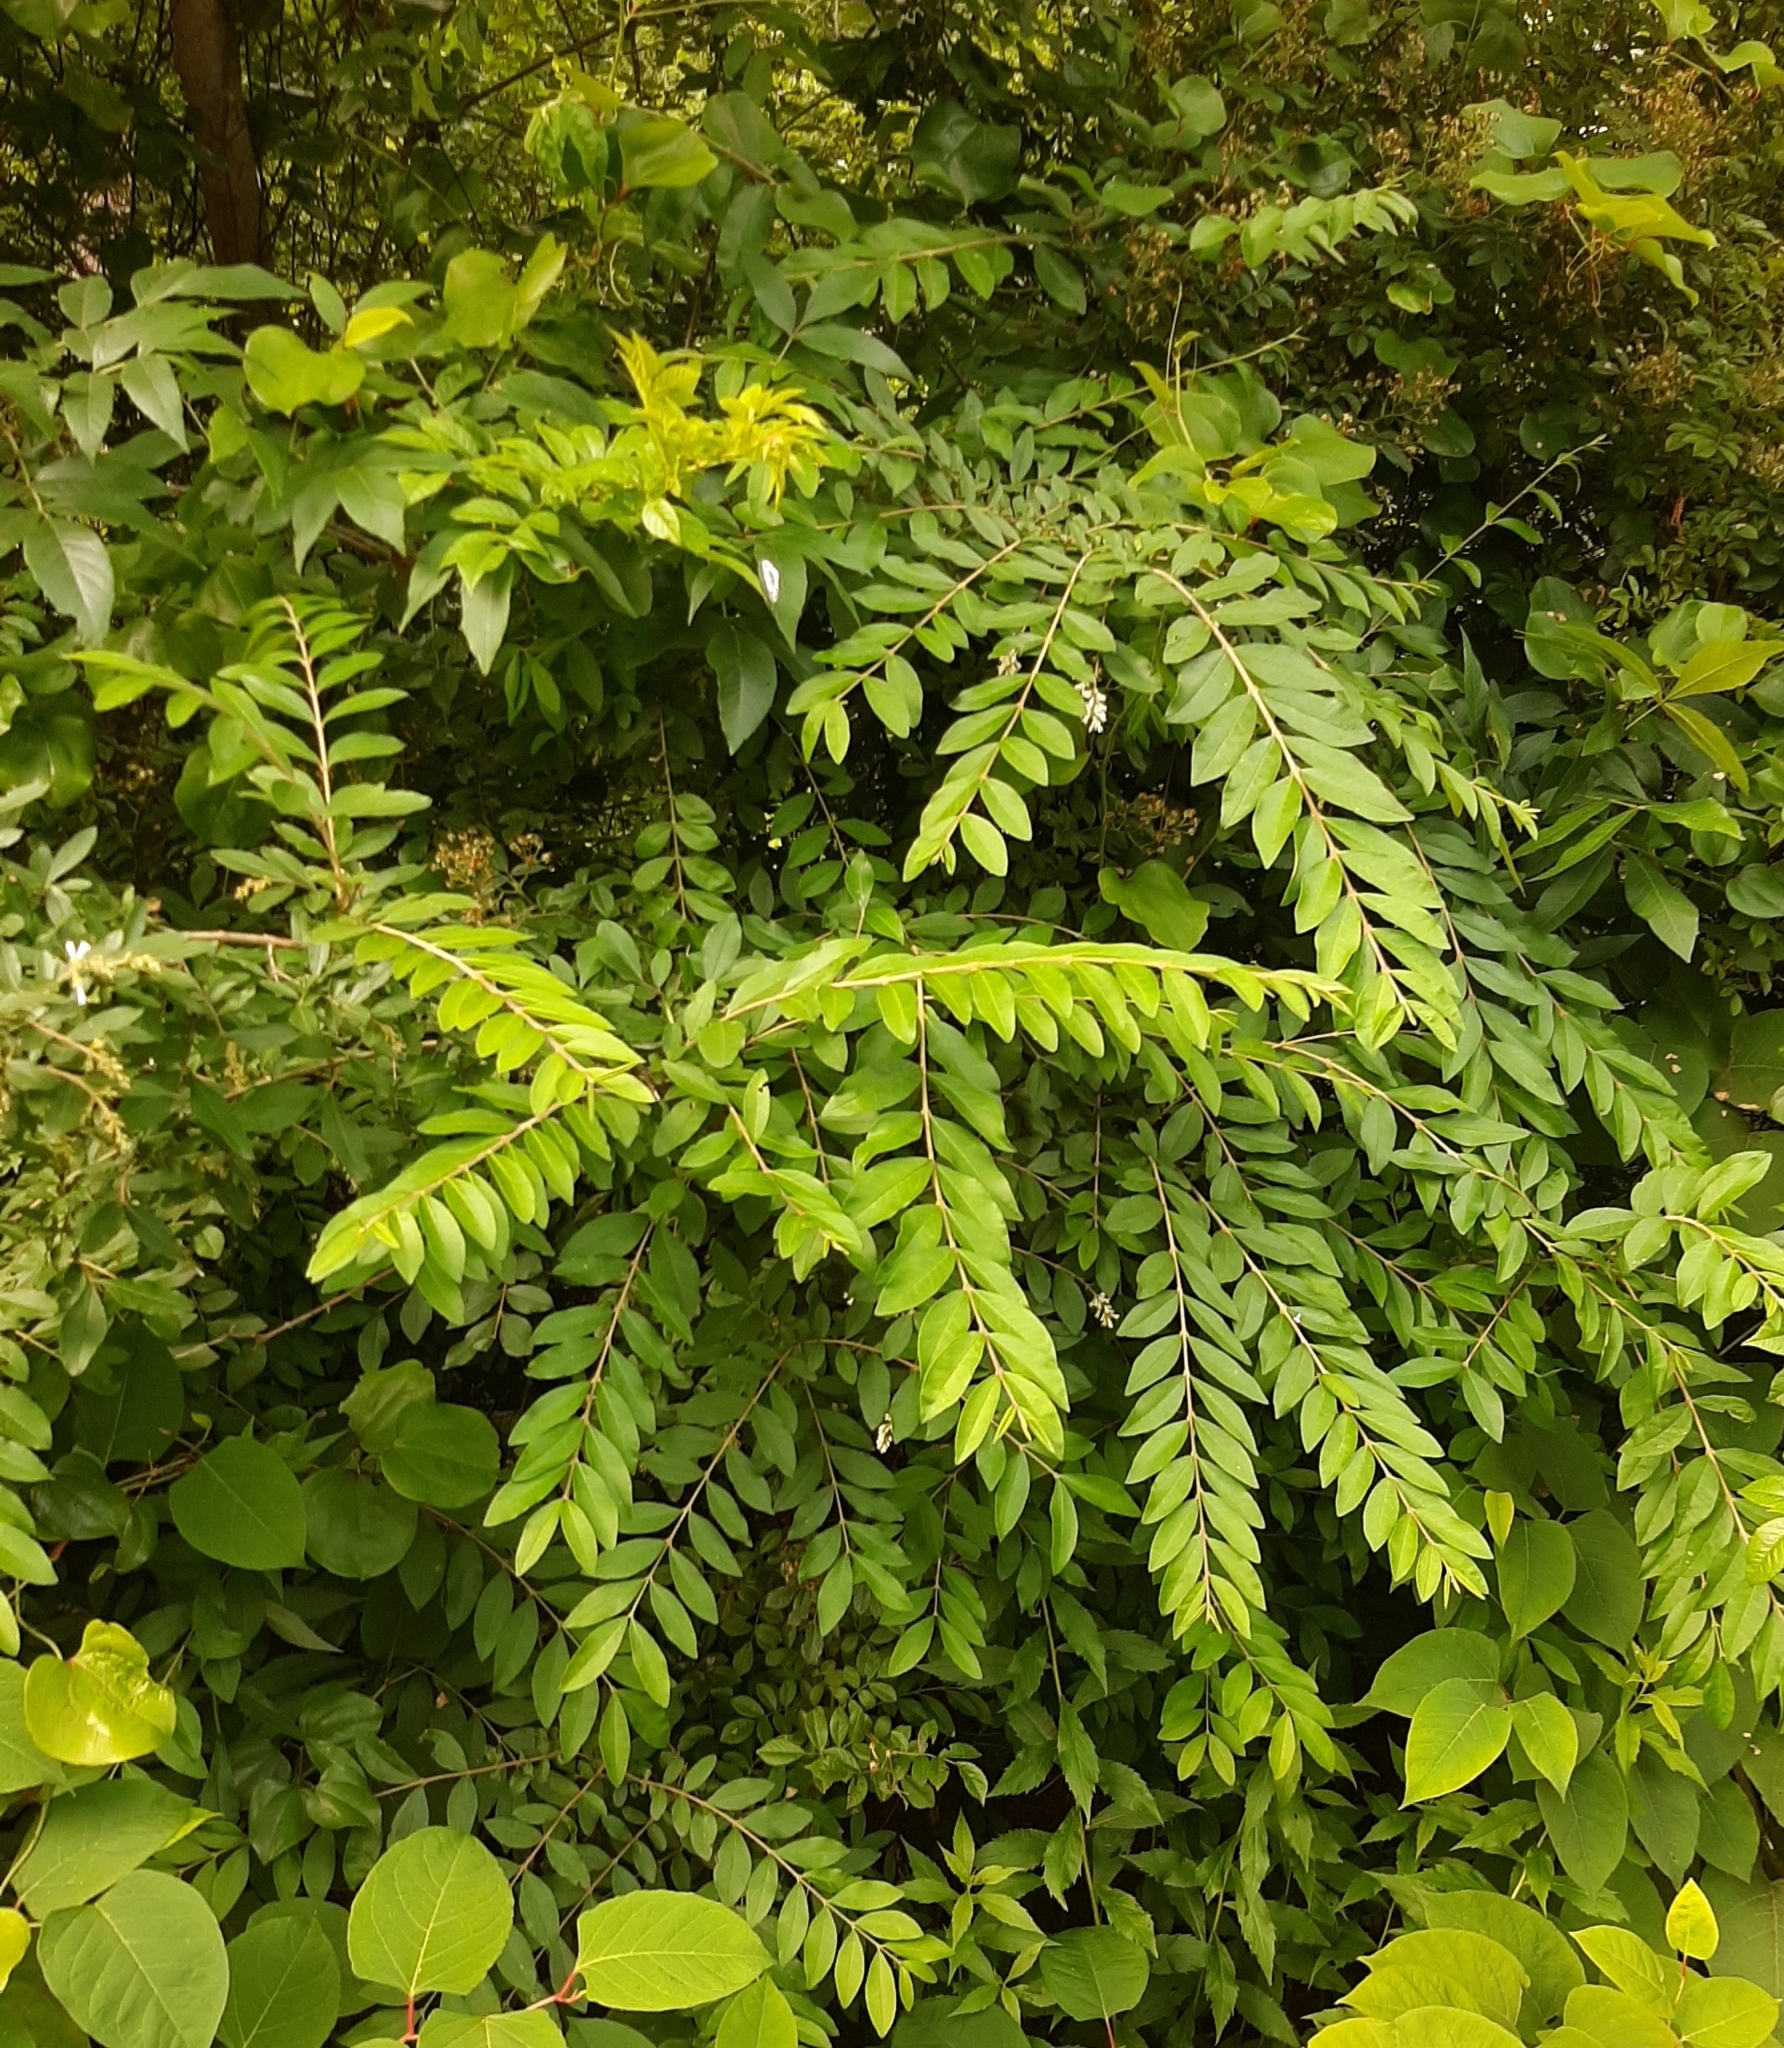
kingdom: Plantae
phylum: Tracheophyta
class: Magnoliopsida
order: Lamiales
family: Oleaceae
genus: Ligustrum
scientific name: Ligustrum obtusifolium
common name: Border privet
